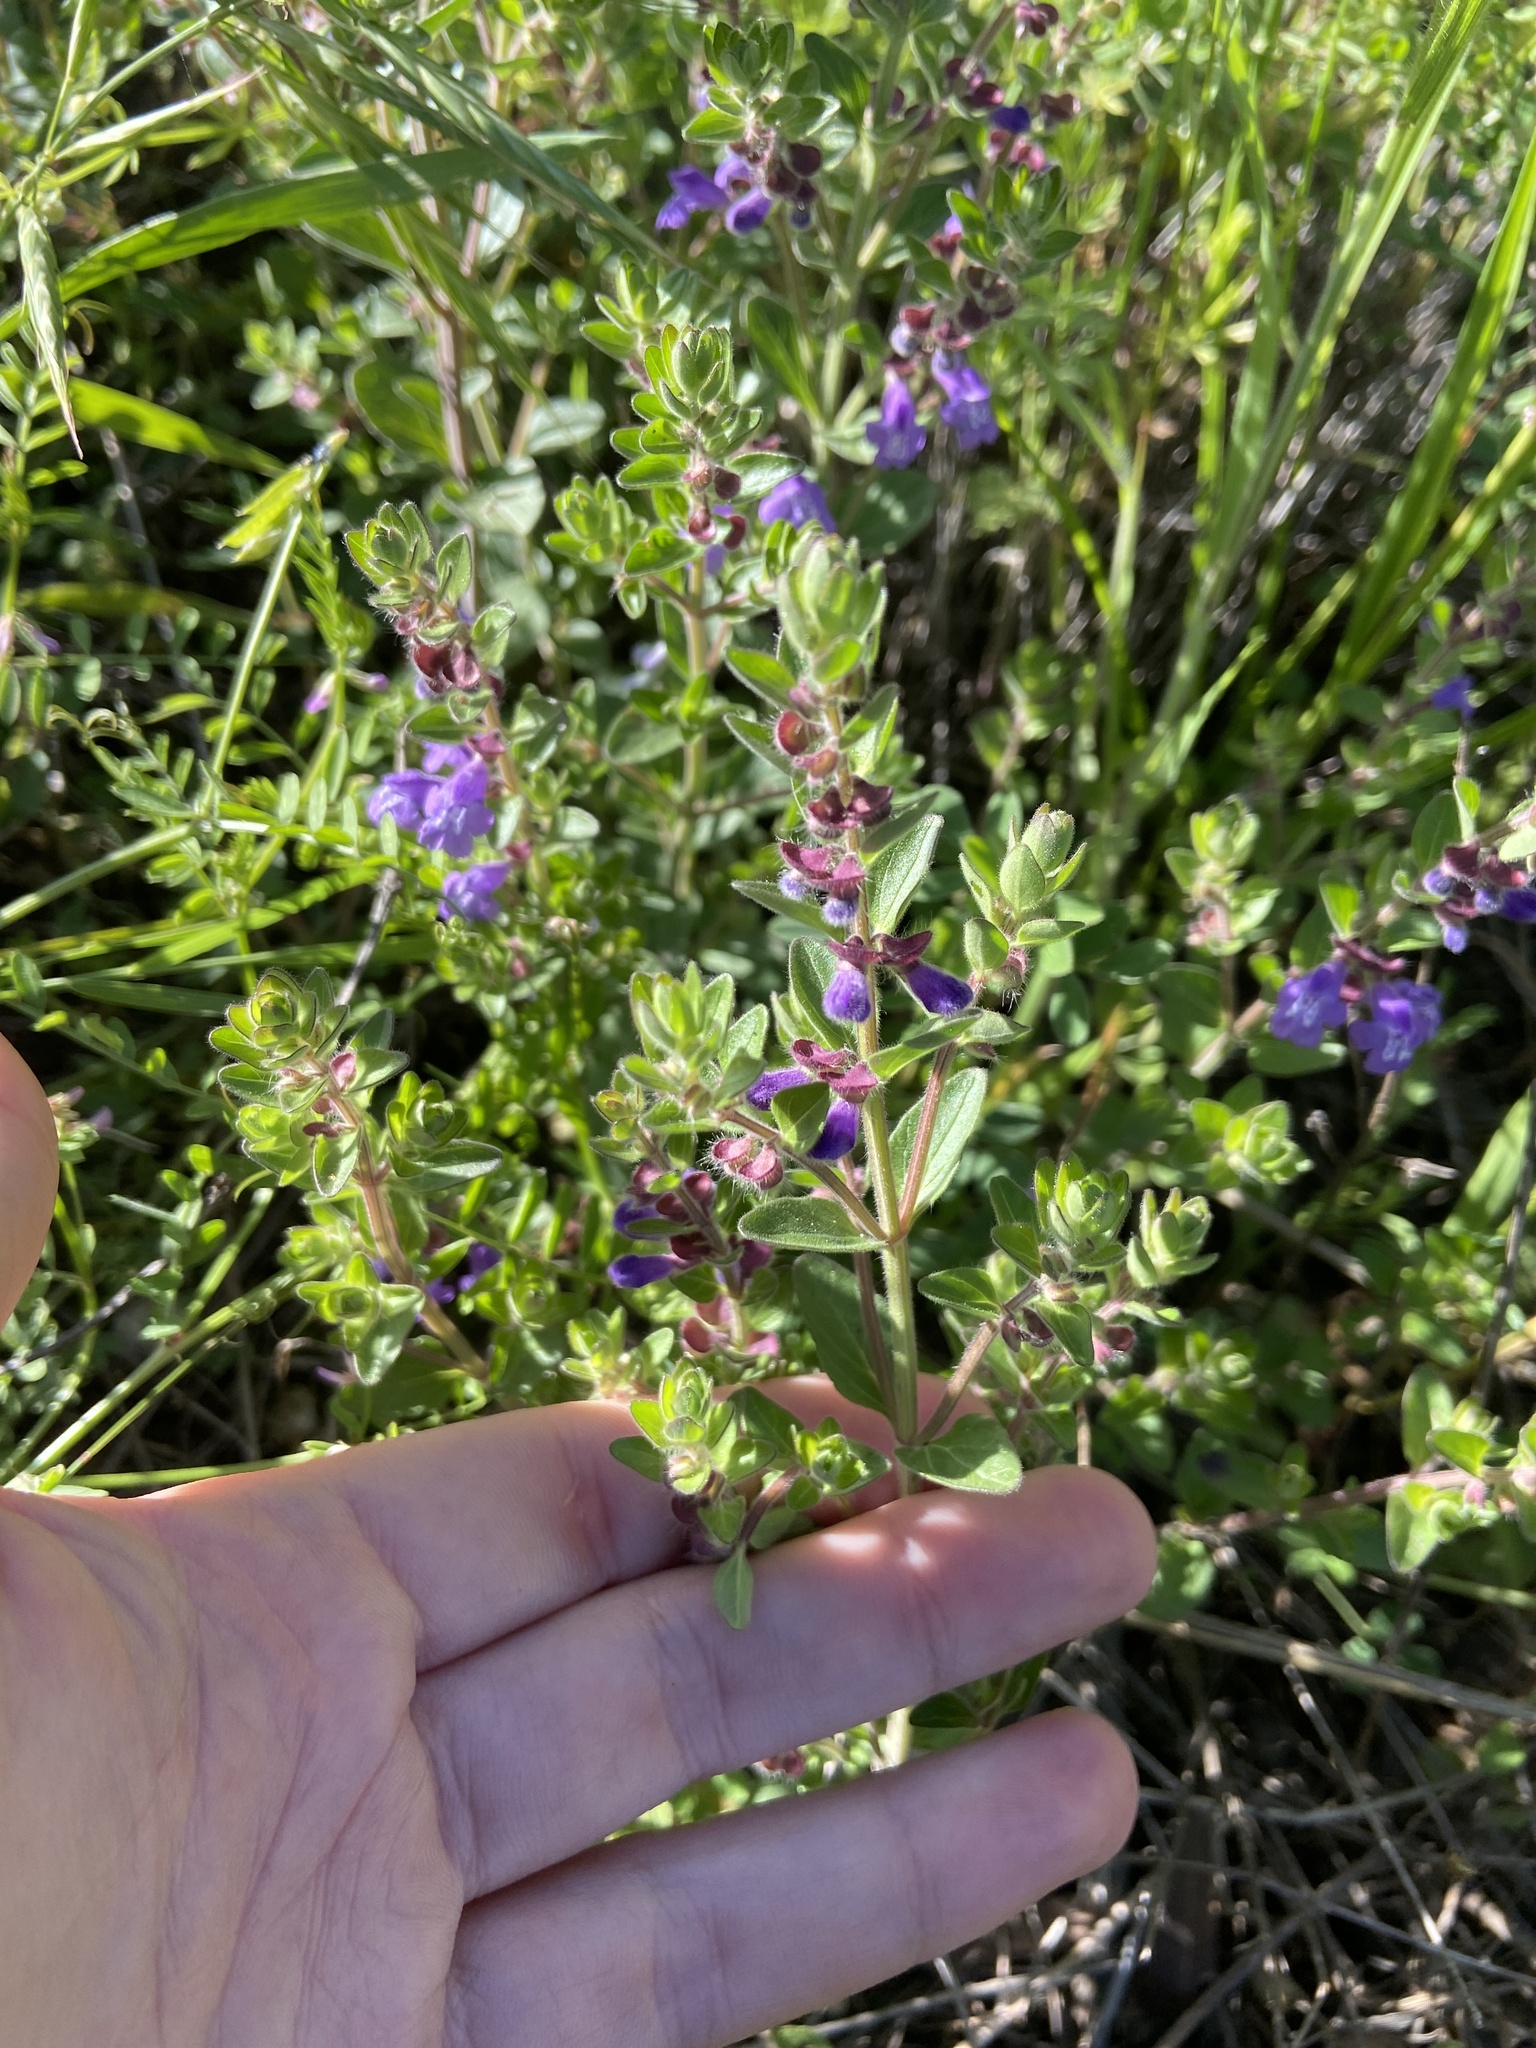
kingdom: Plantae
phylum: Tracheophyta
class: Magnoliopsida
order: Lamiales
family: Lamiaceae
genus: Scutellaria
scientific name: Scutellaria drummondii
